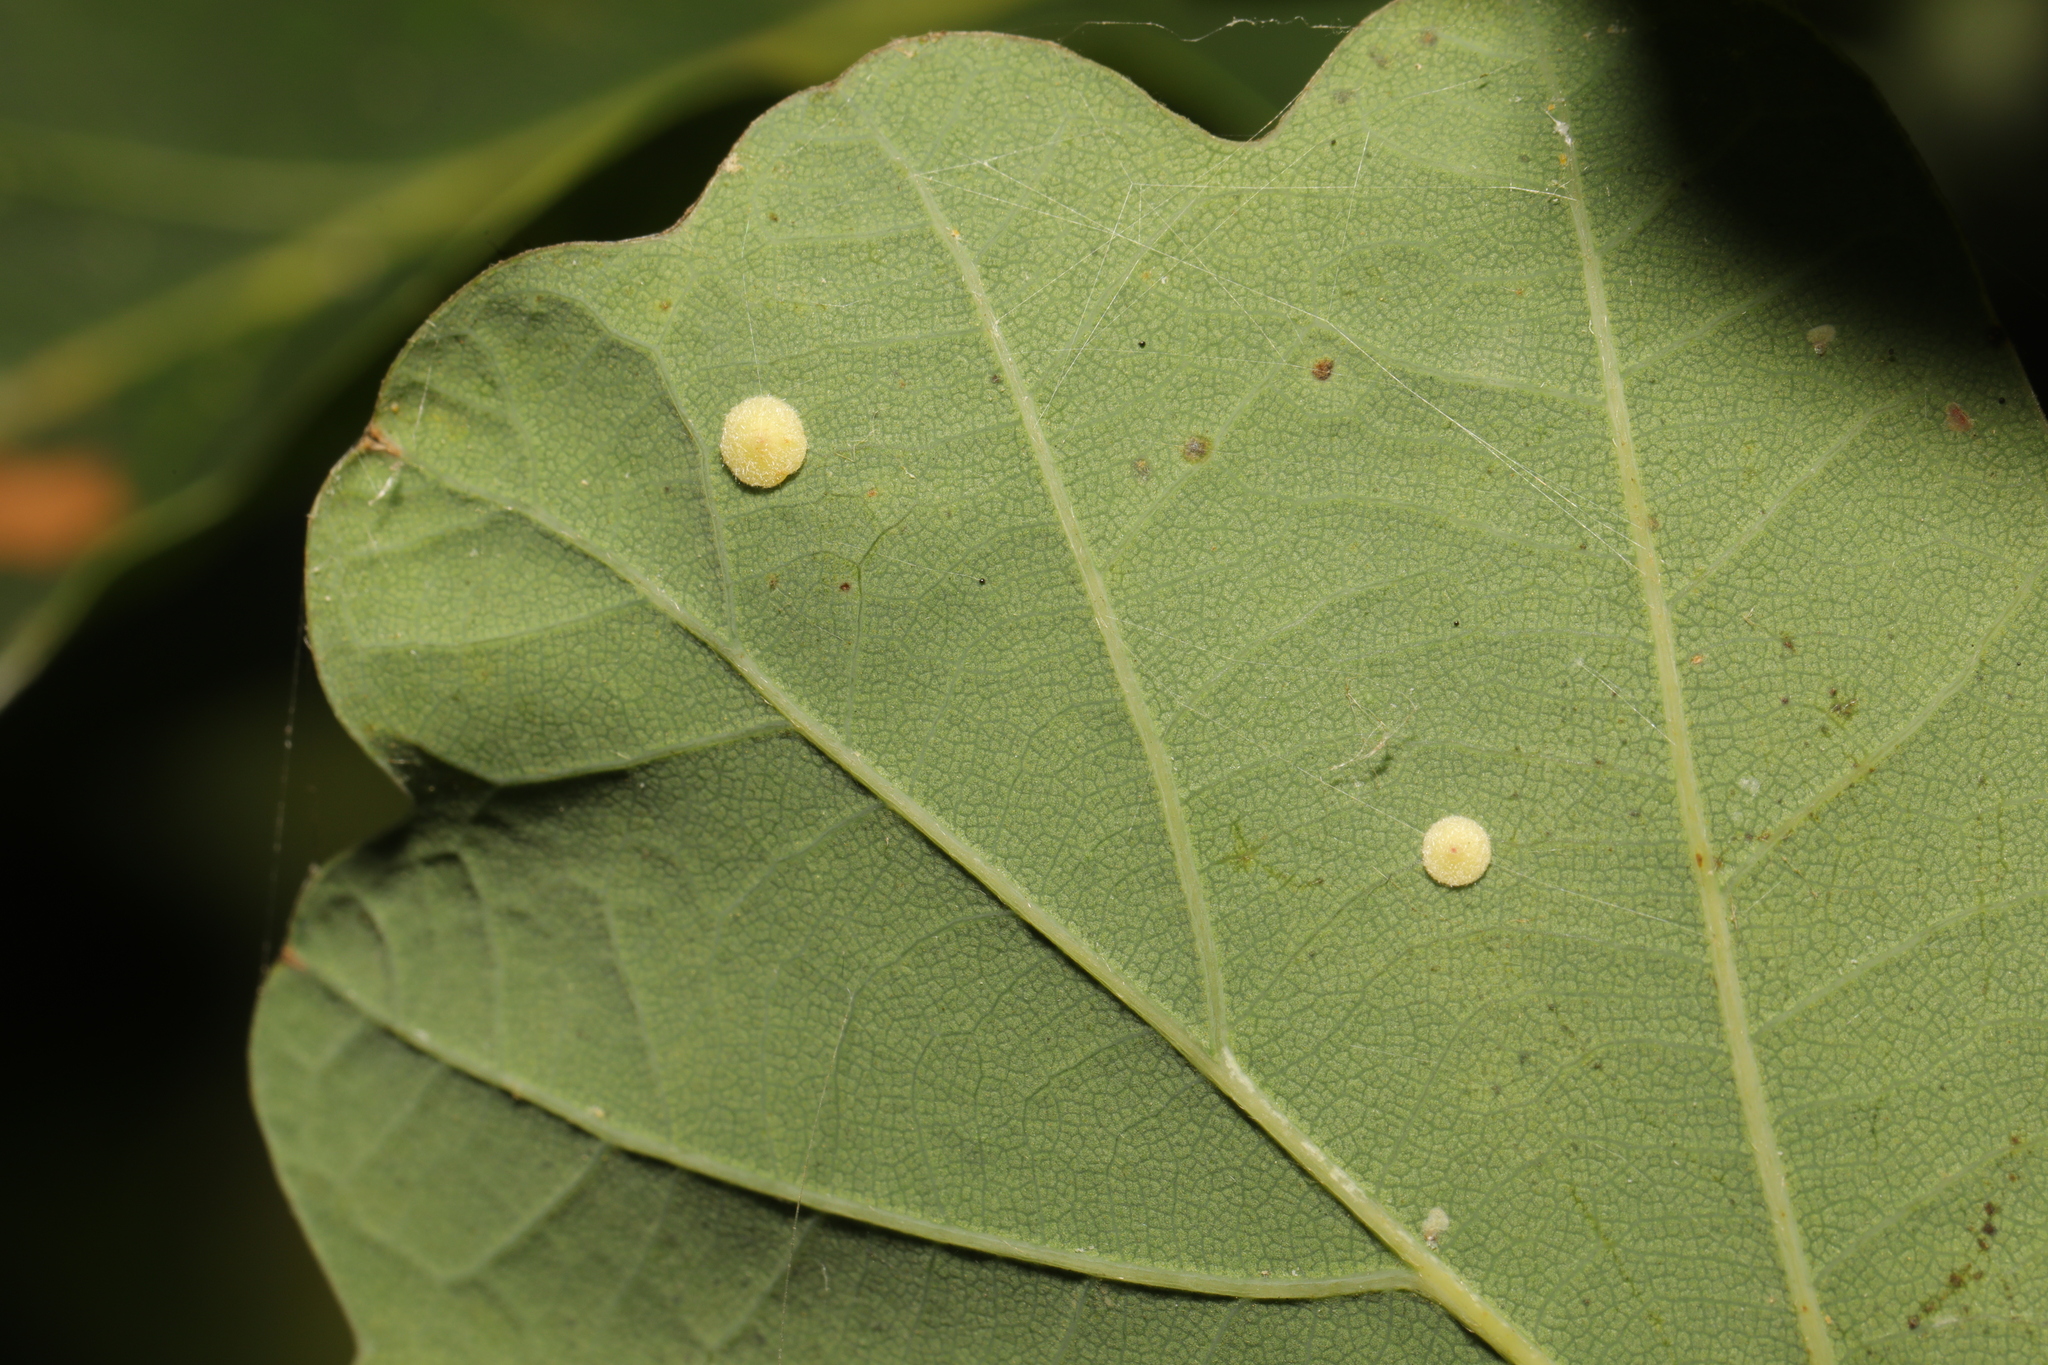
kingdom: Animalia
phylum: Arthropoda
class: Insecta
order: Hymenoptera
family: Cynipidae
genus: Neuroterus
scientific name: Neuroterus albipes
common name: Smooth spangle gall
